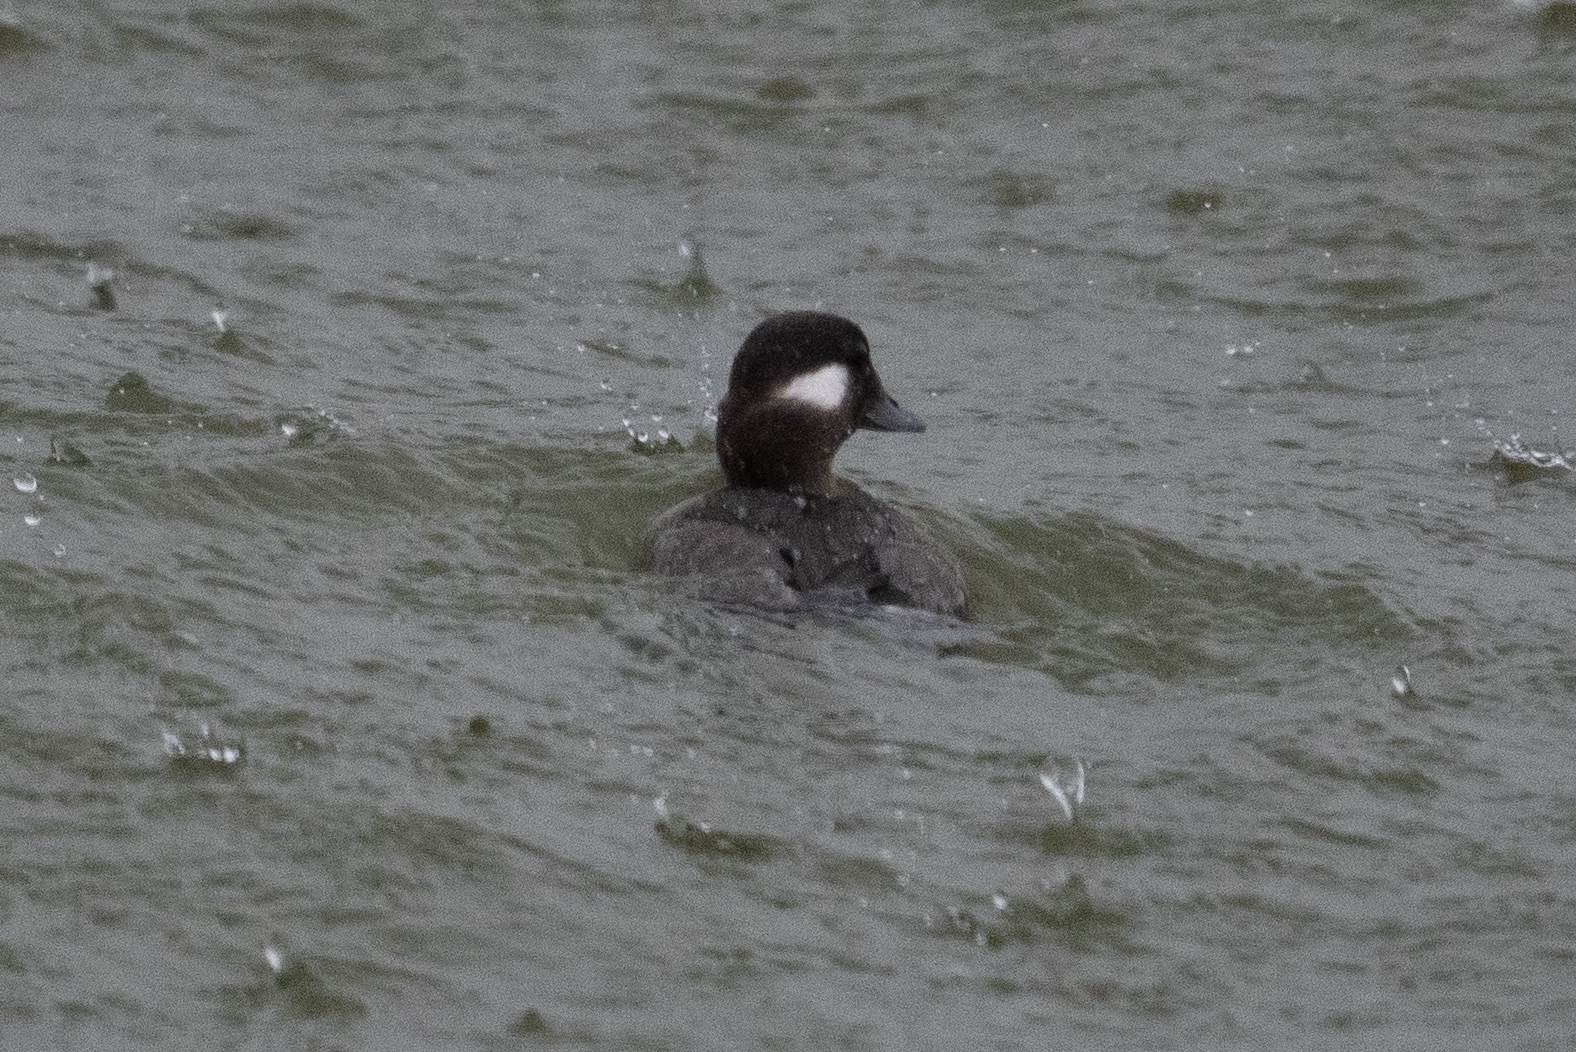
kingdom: Animalia
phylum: Chordata
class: Aves
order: Anseriformes
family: Anatidae
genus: Bucephala
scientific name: Bucephala albeola
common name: Bufflehead
